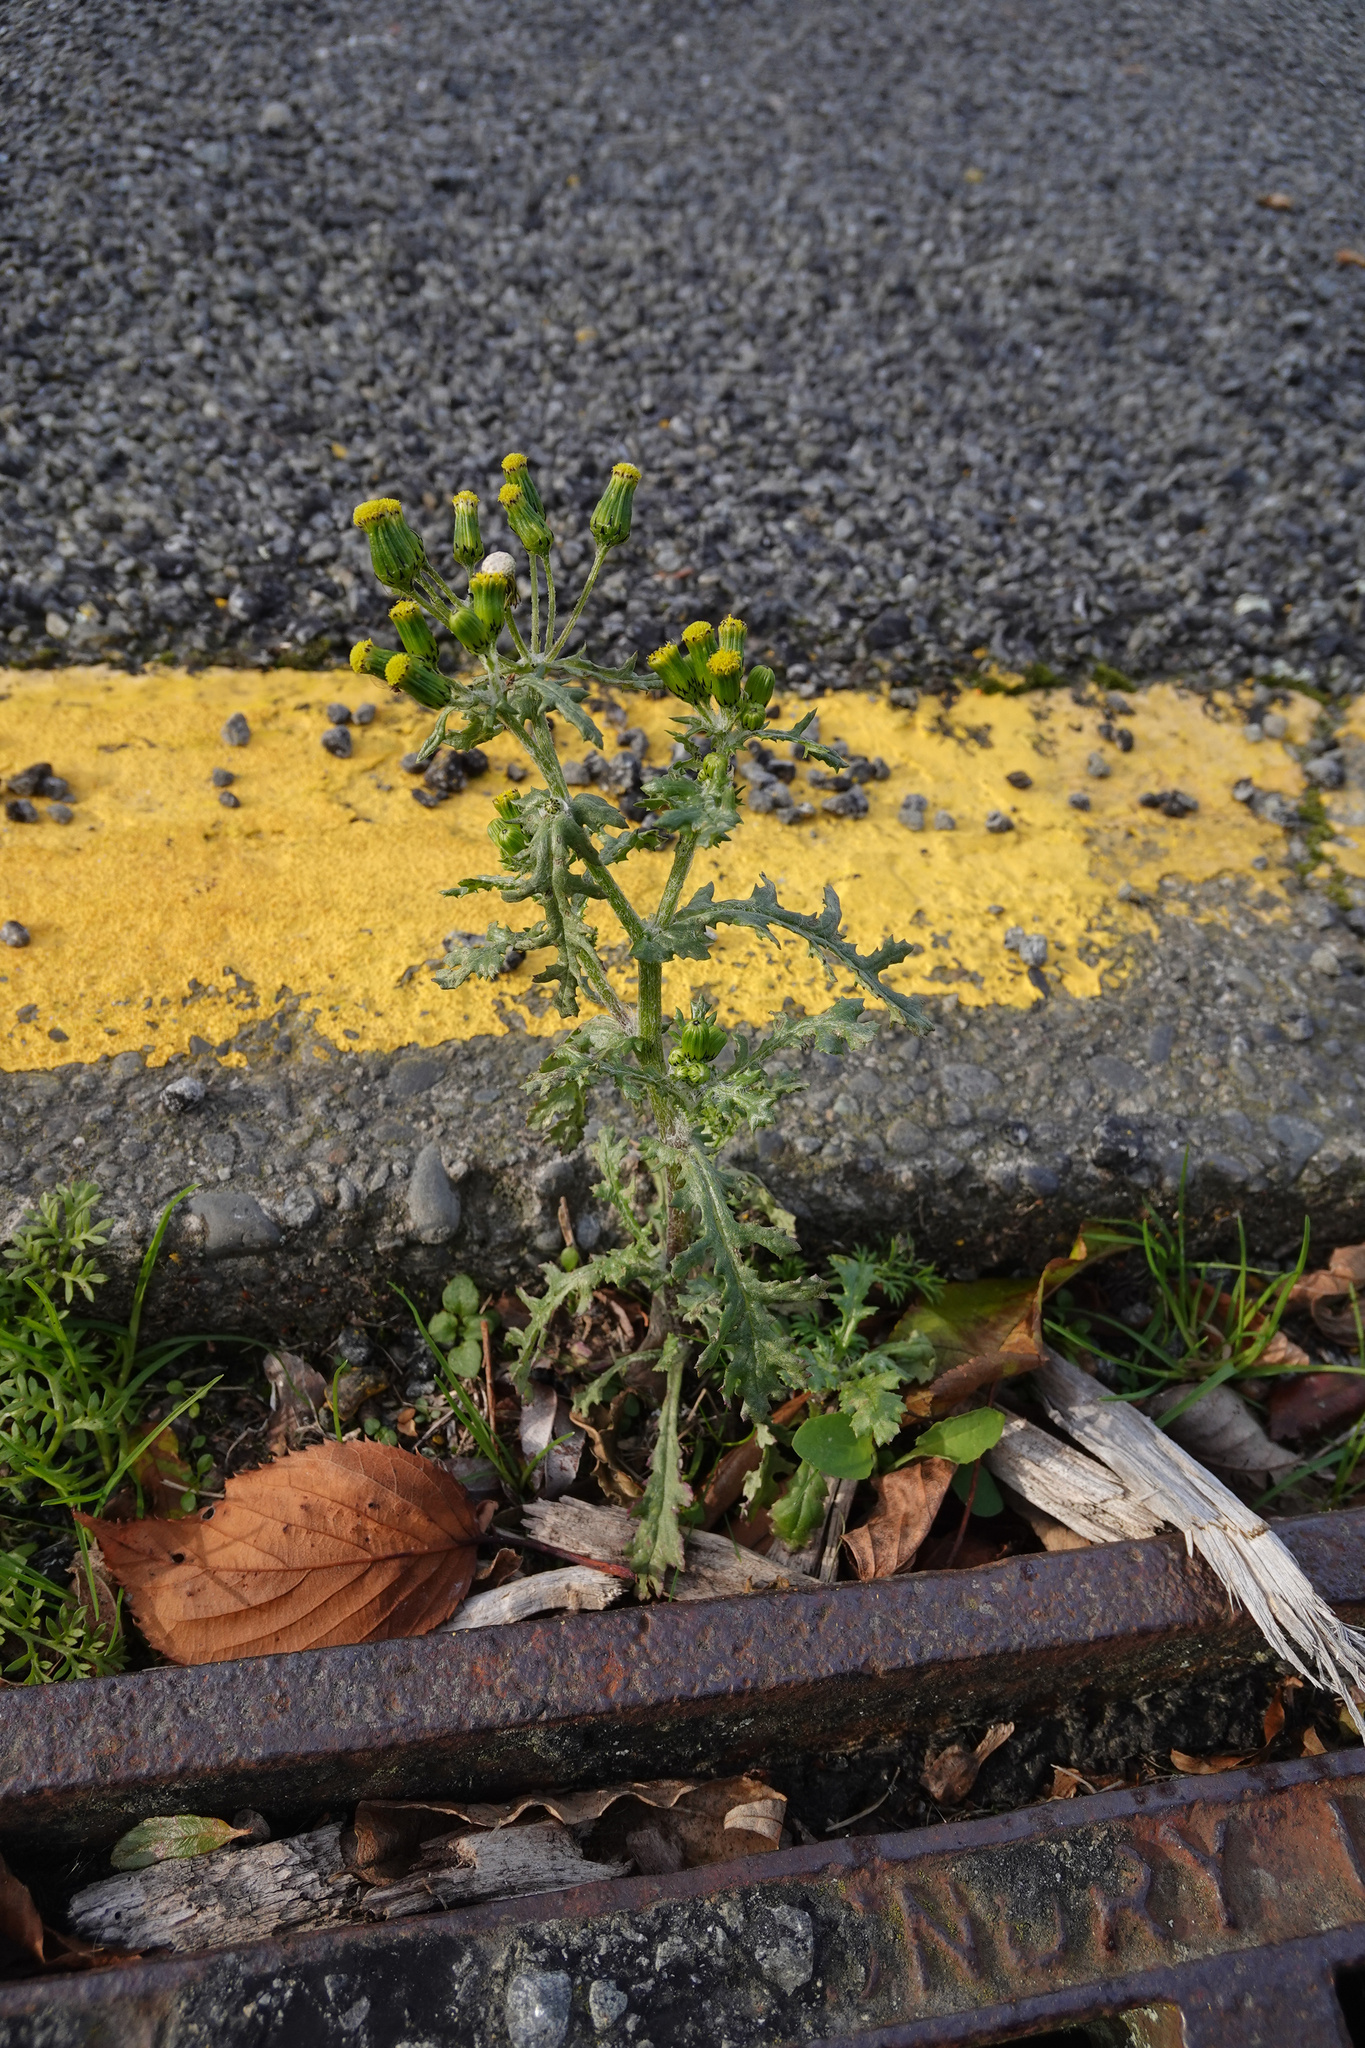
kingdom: Plantae
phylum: Tracheophyta
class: Magnoliopsida
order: Asterales
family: Asteraceae
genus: Senecio
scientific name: Senecio vulgaris
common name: Old-man-in-the-spring
